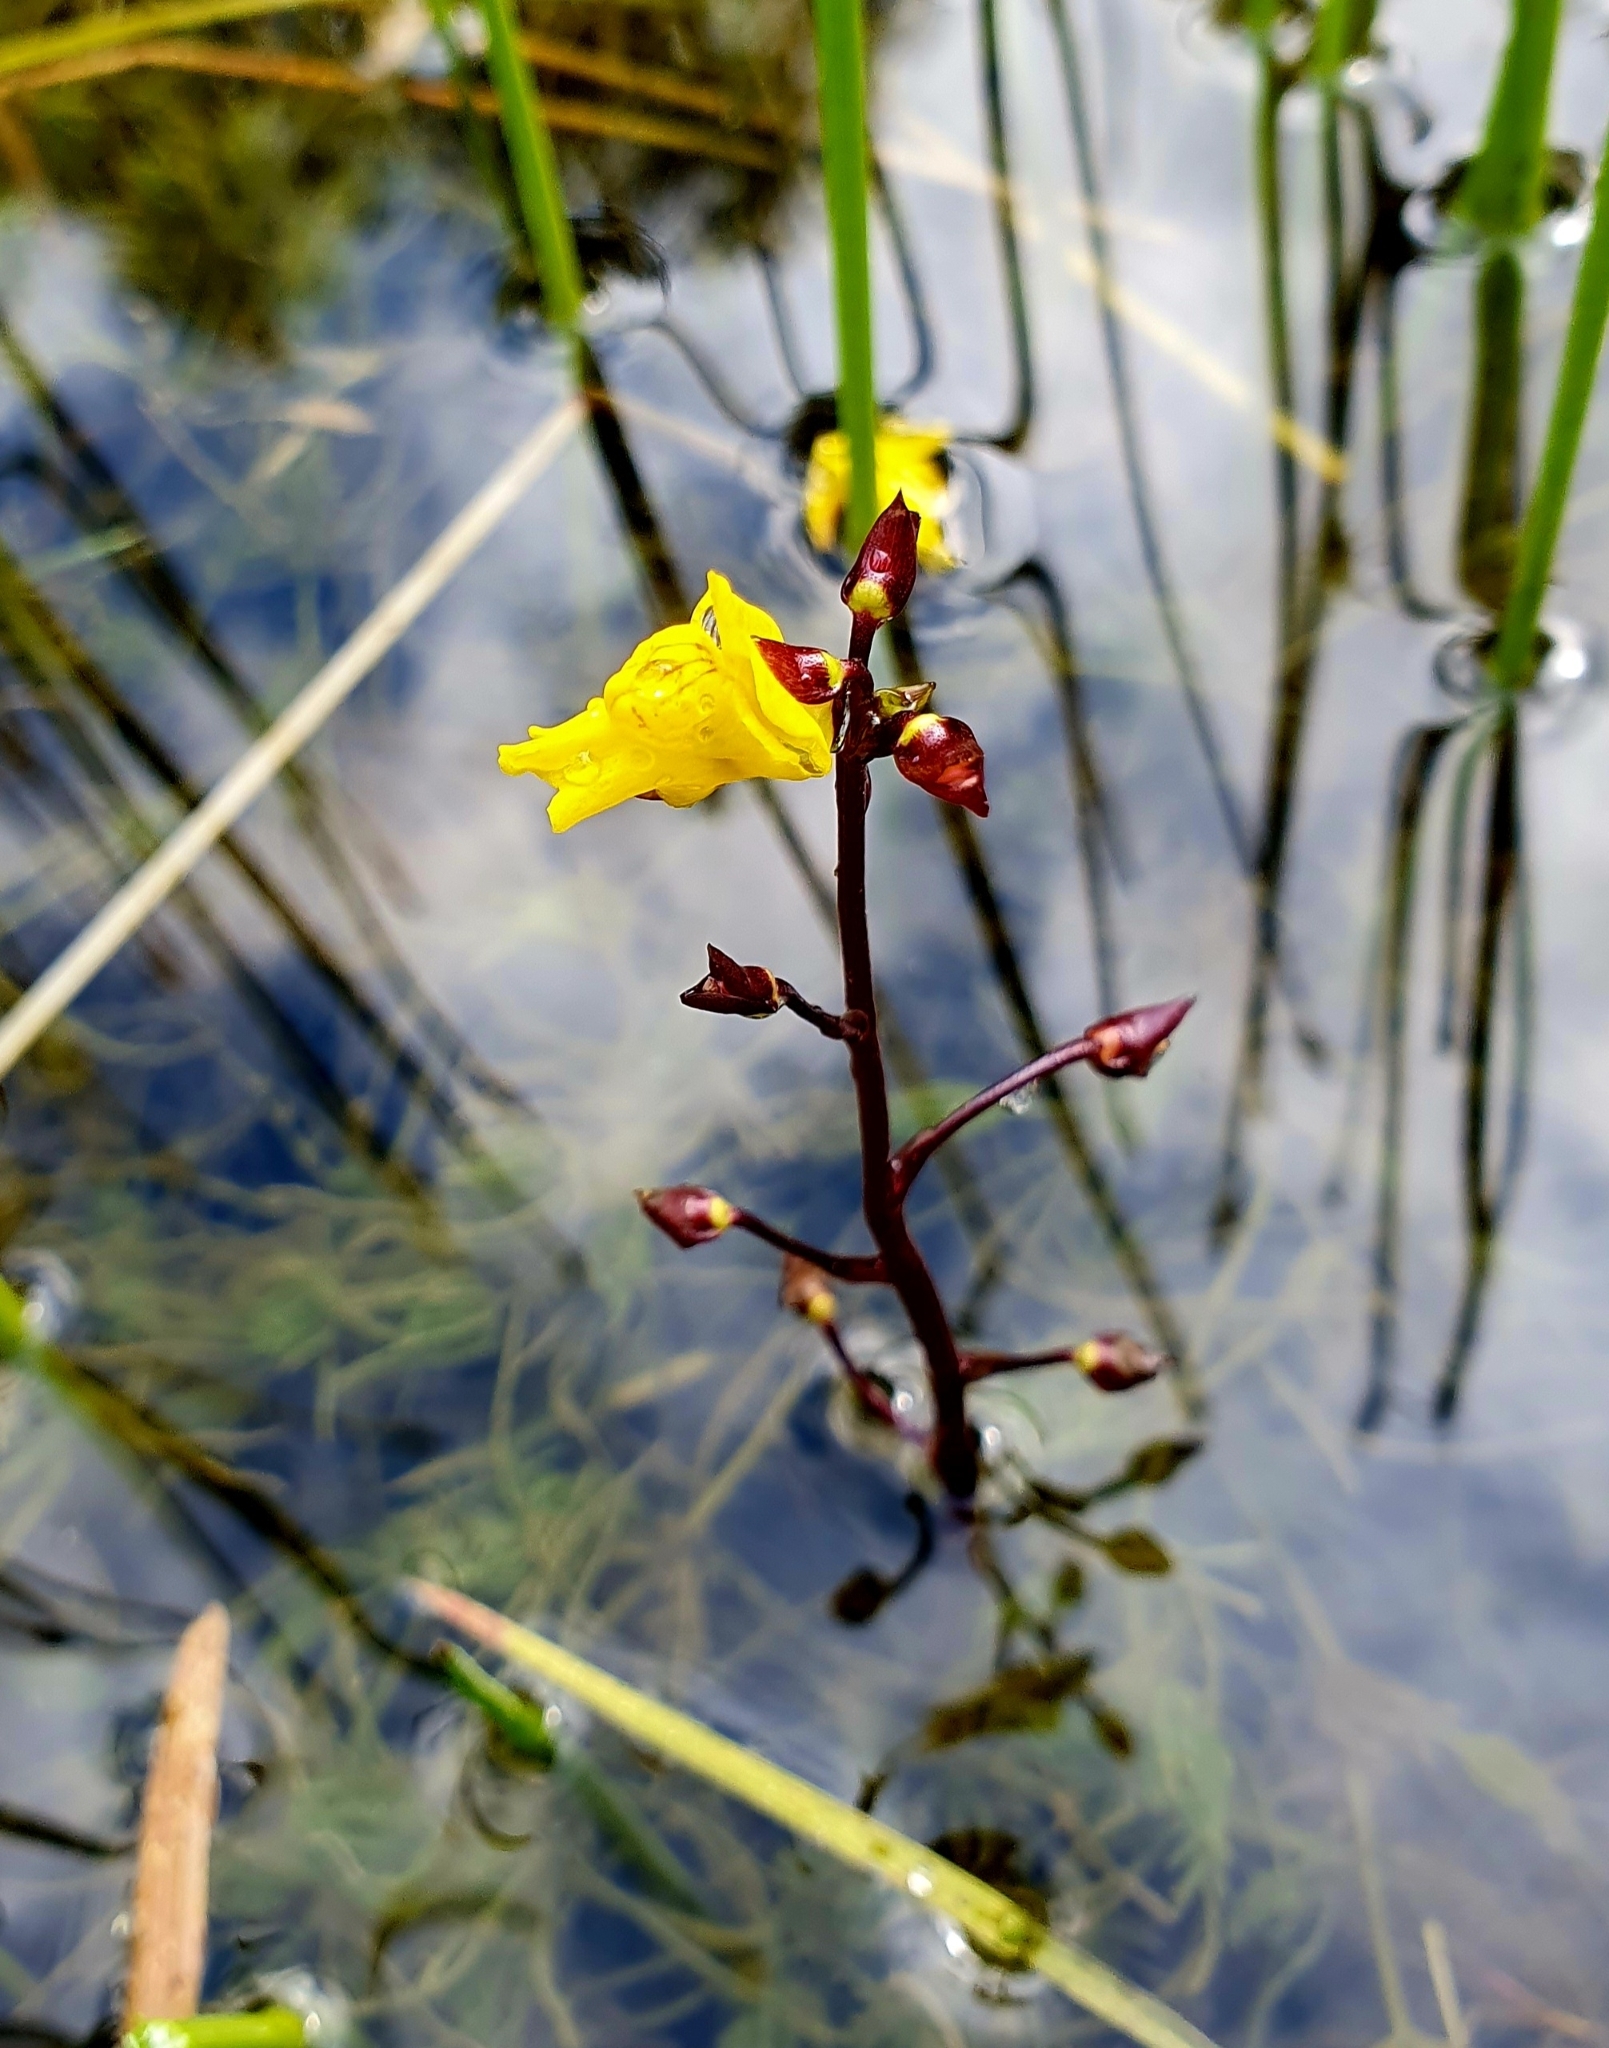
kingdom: Plantae
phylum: Tracheophyta
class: Magnoliopsida
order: Lamiales
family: Lentibulariaceae
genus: Utricularia
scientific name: Utricularia vulgaris
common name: Greater bladderwort
